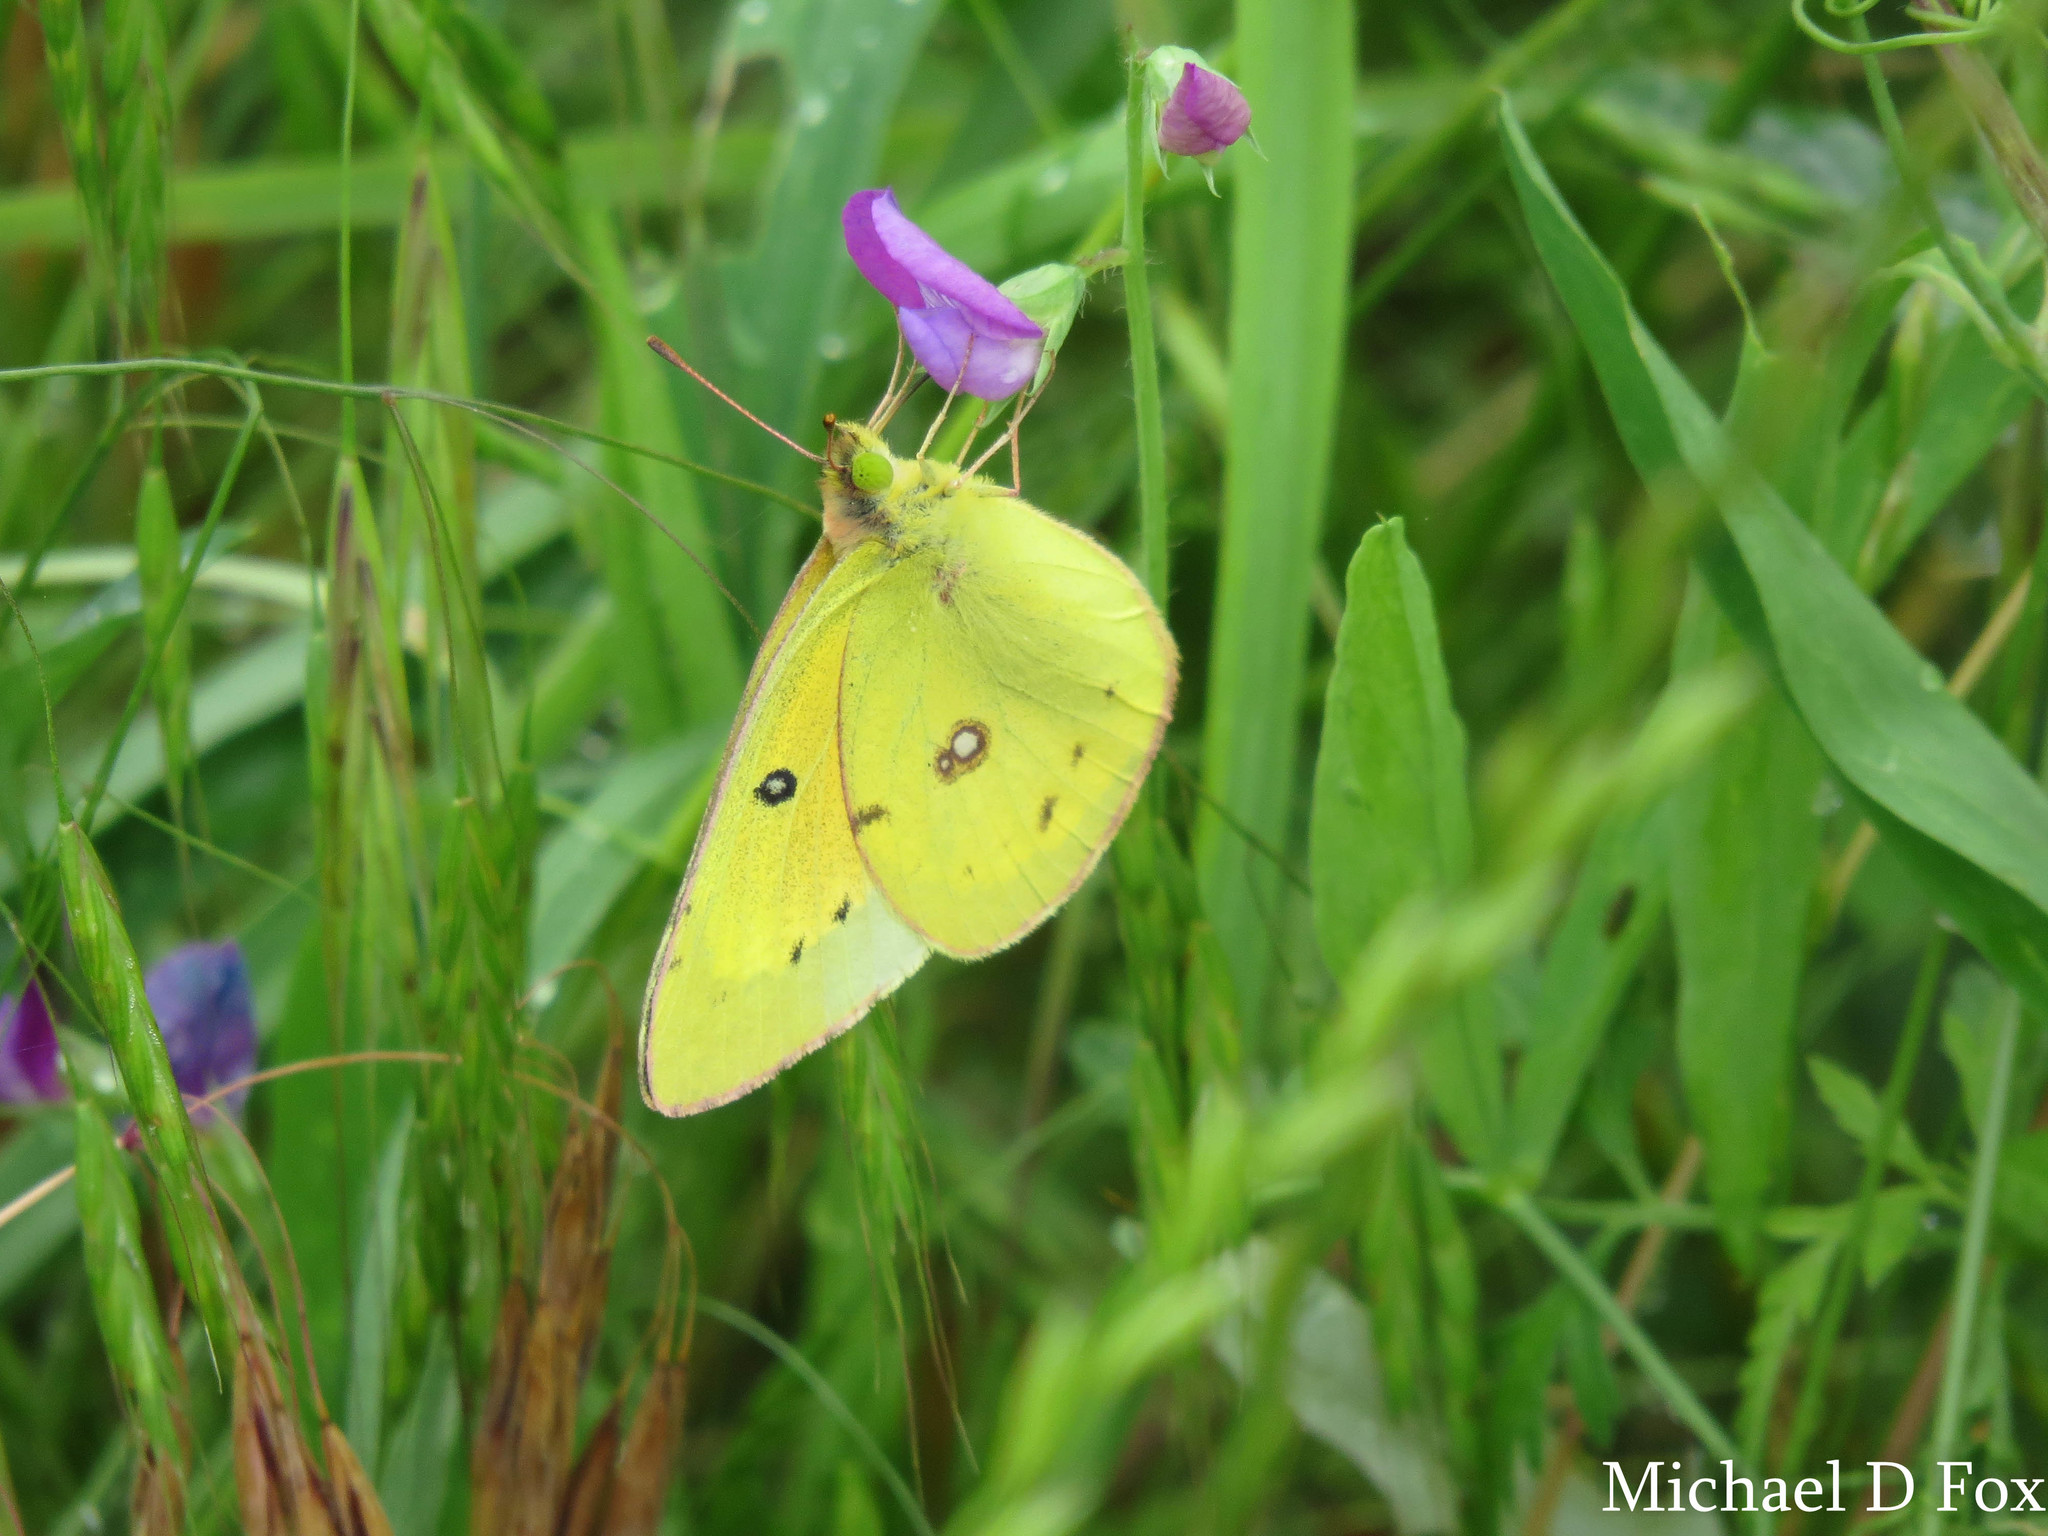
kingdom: Animalia
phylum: Arthropoda
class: Insecta
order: Lepidoptera
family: Pieridae
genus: Colias
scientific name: Colias eurytheme
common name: Alfalfa butterfly
